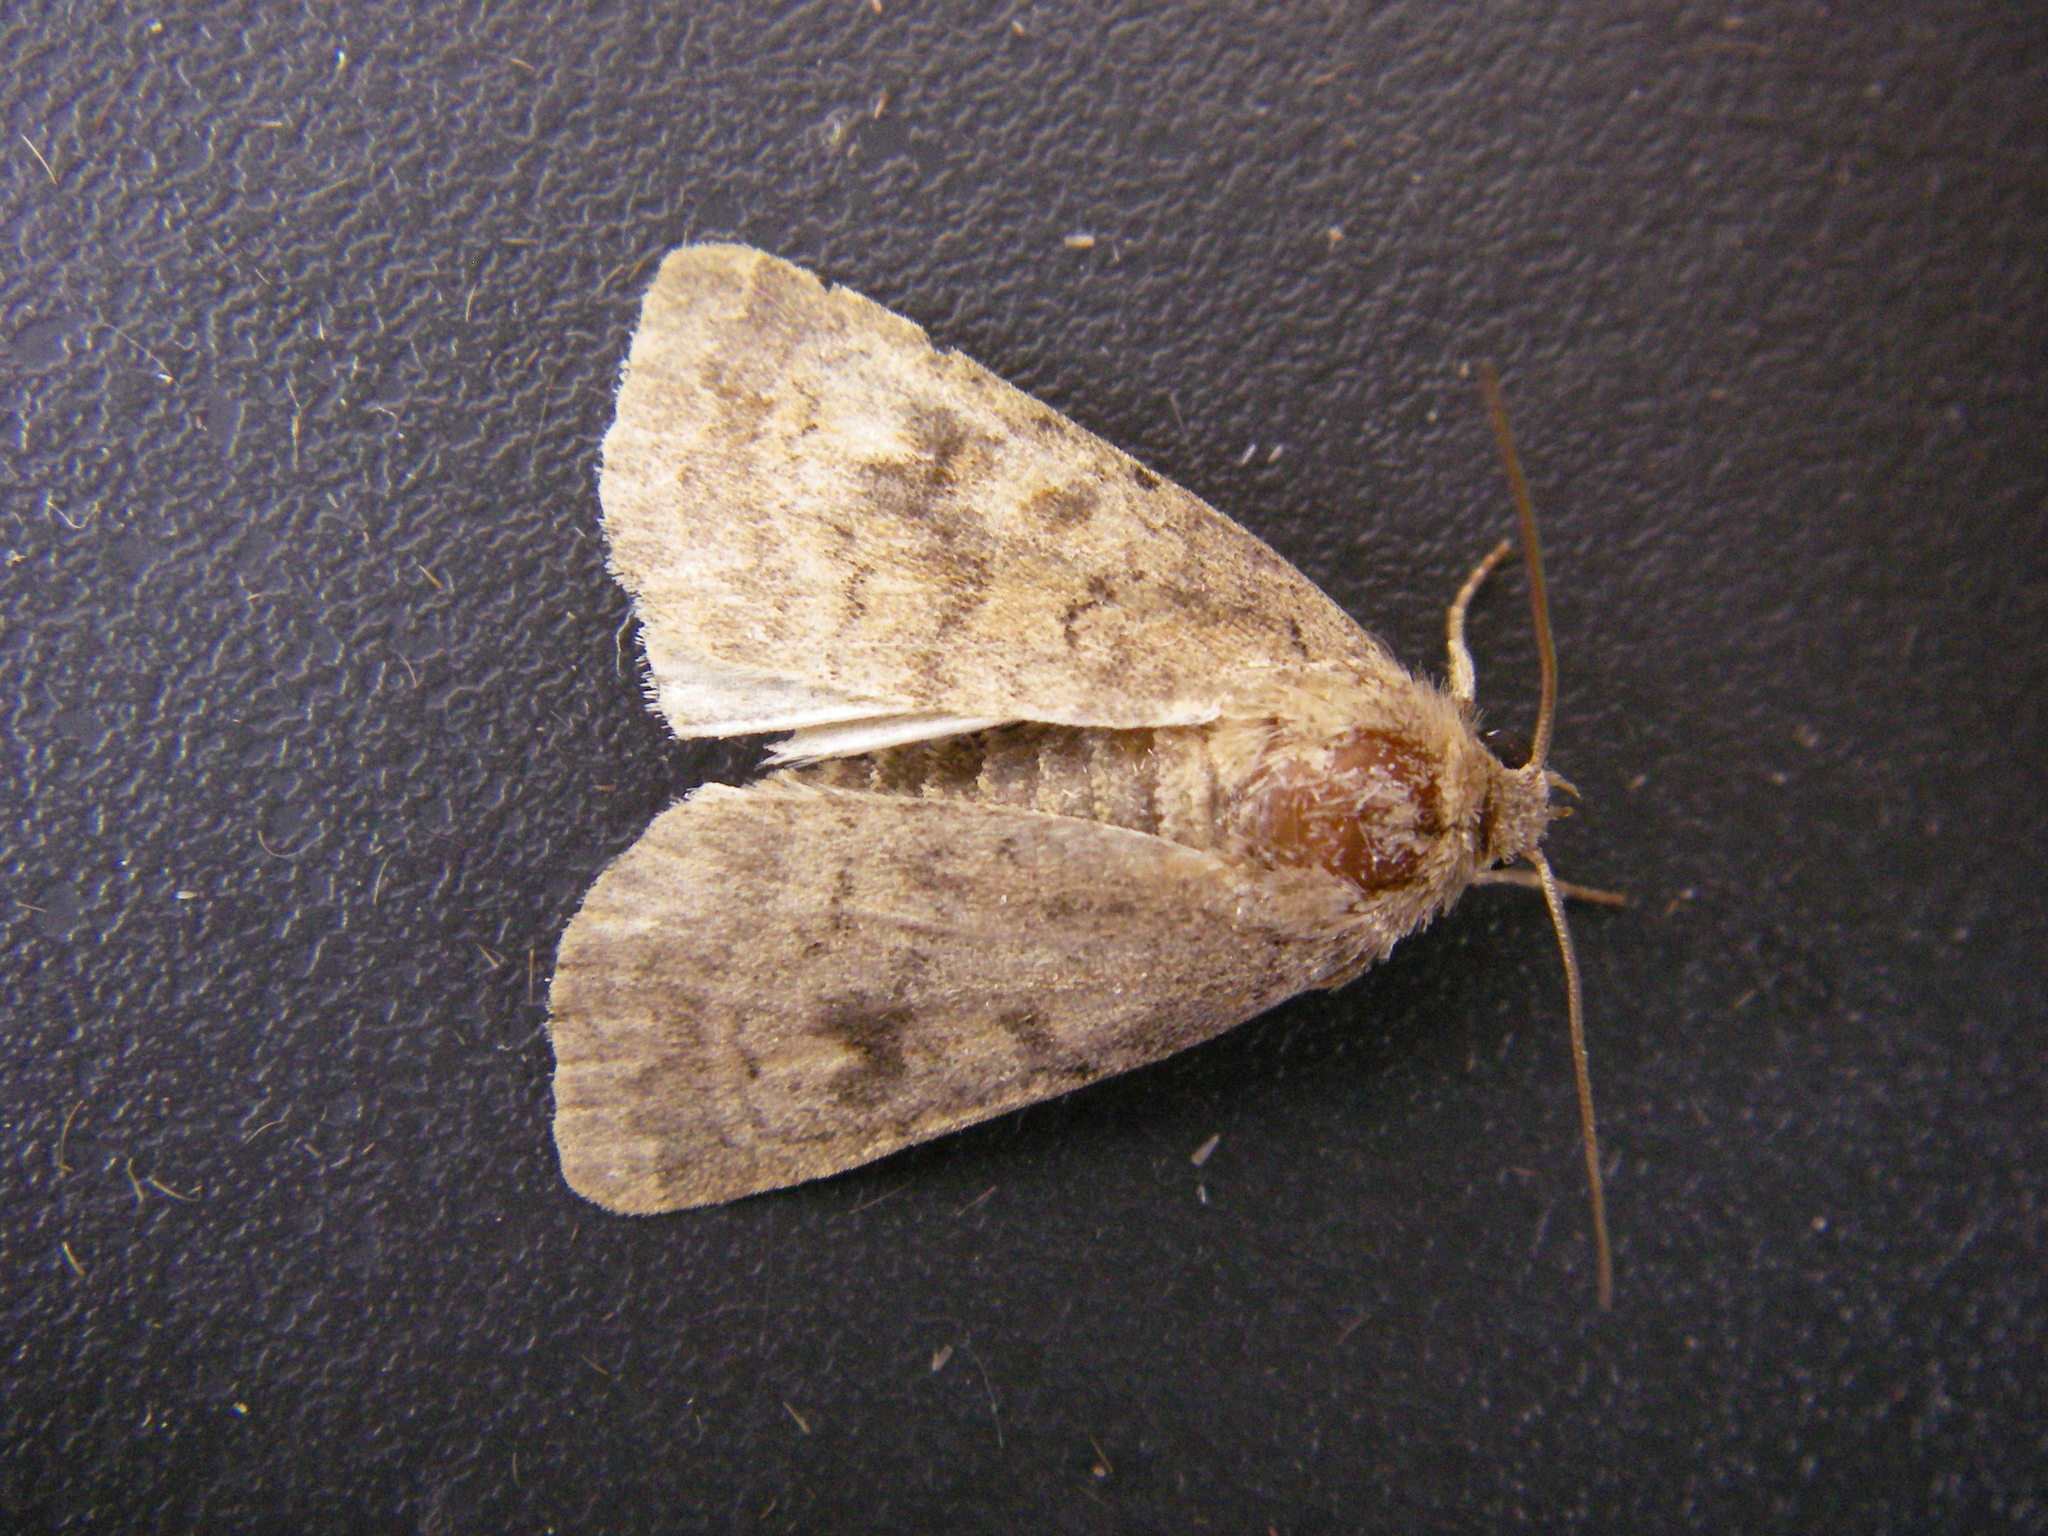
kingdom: Animalia
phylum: Arthropoda
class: Insecta
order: Lepidoptera
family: Noctuidae
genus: Caradrina
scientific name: Caradrina morpheus
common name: Mottled rustic
